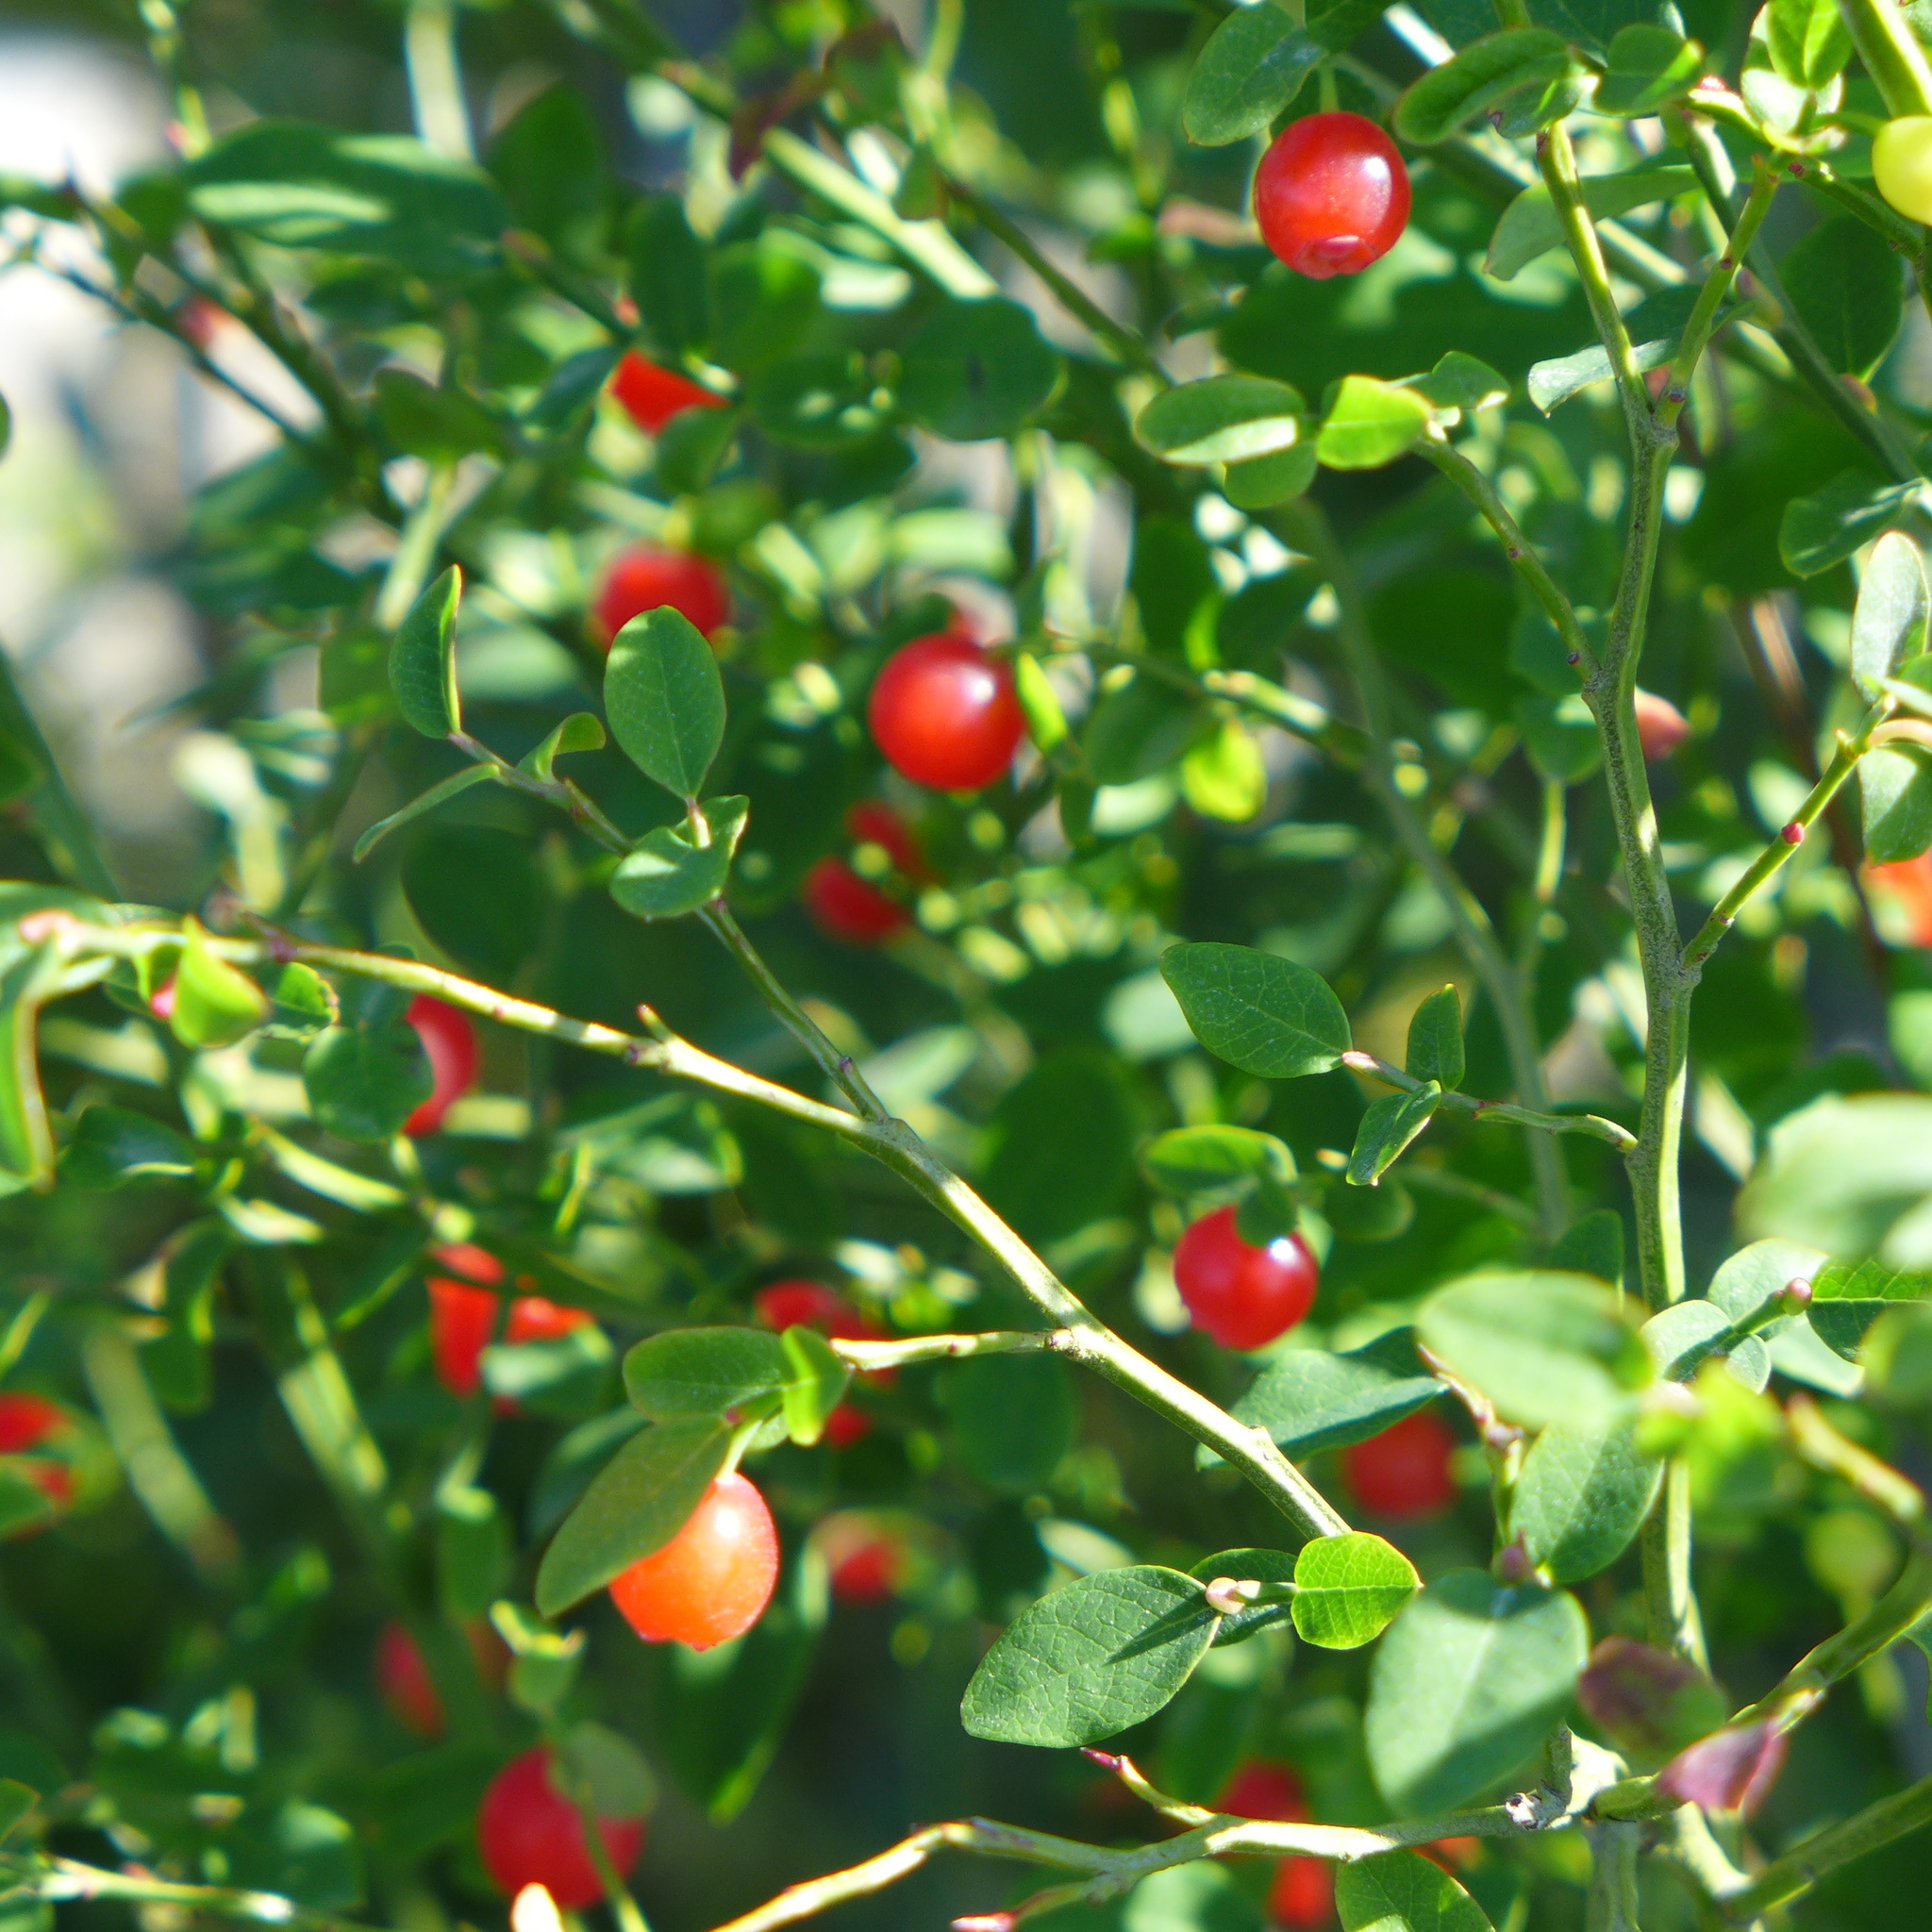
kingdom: Plantae
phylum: Tracheophyta
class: Magnoliopsida
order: Ericales
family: Ericaceae
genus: Vaccinium
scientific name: Vaccinium parvifolium
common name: Red-huckleberry
